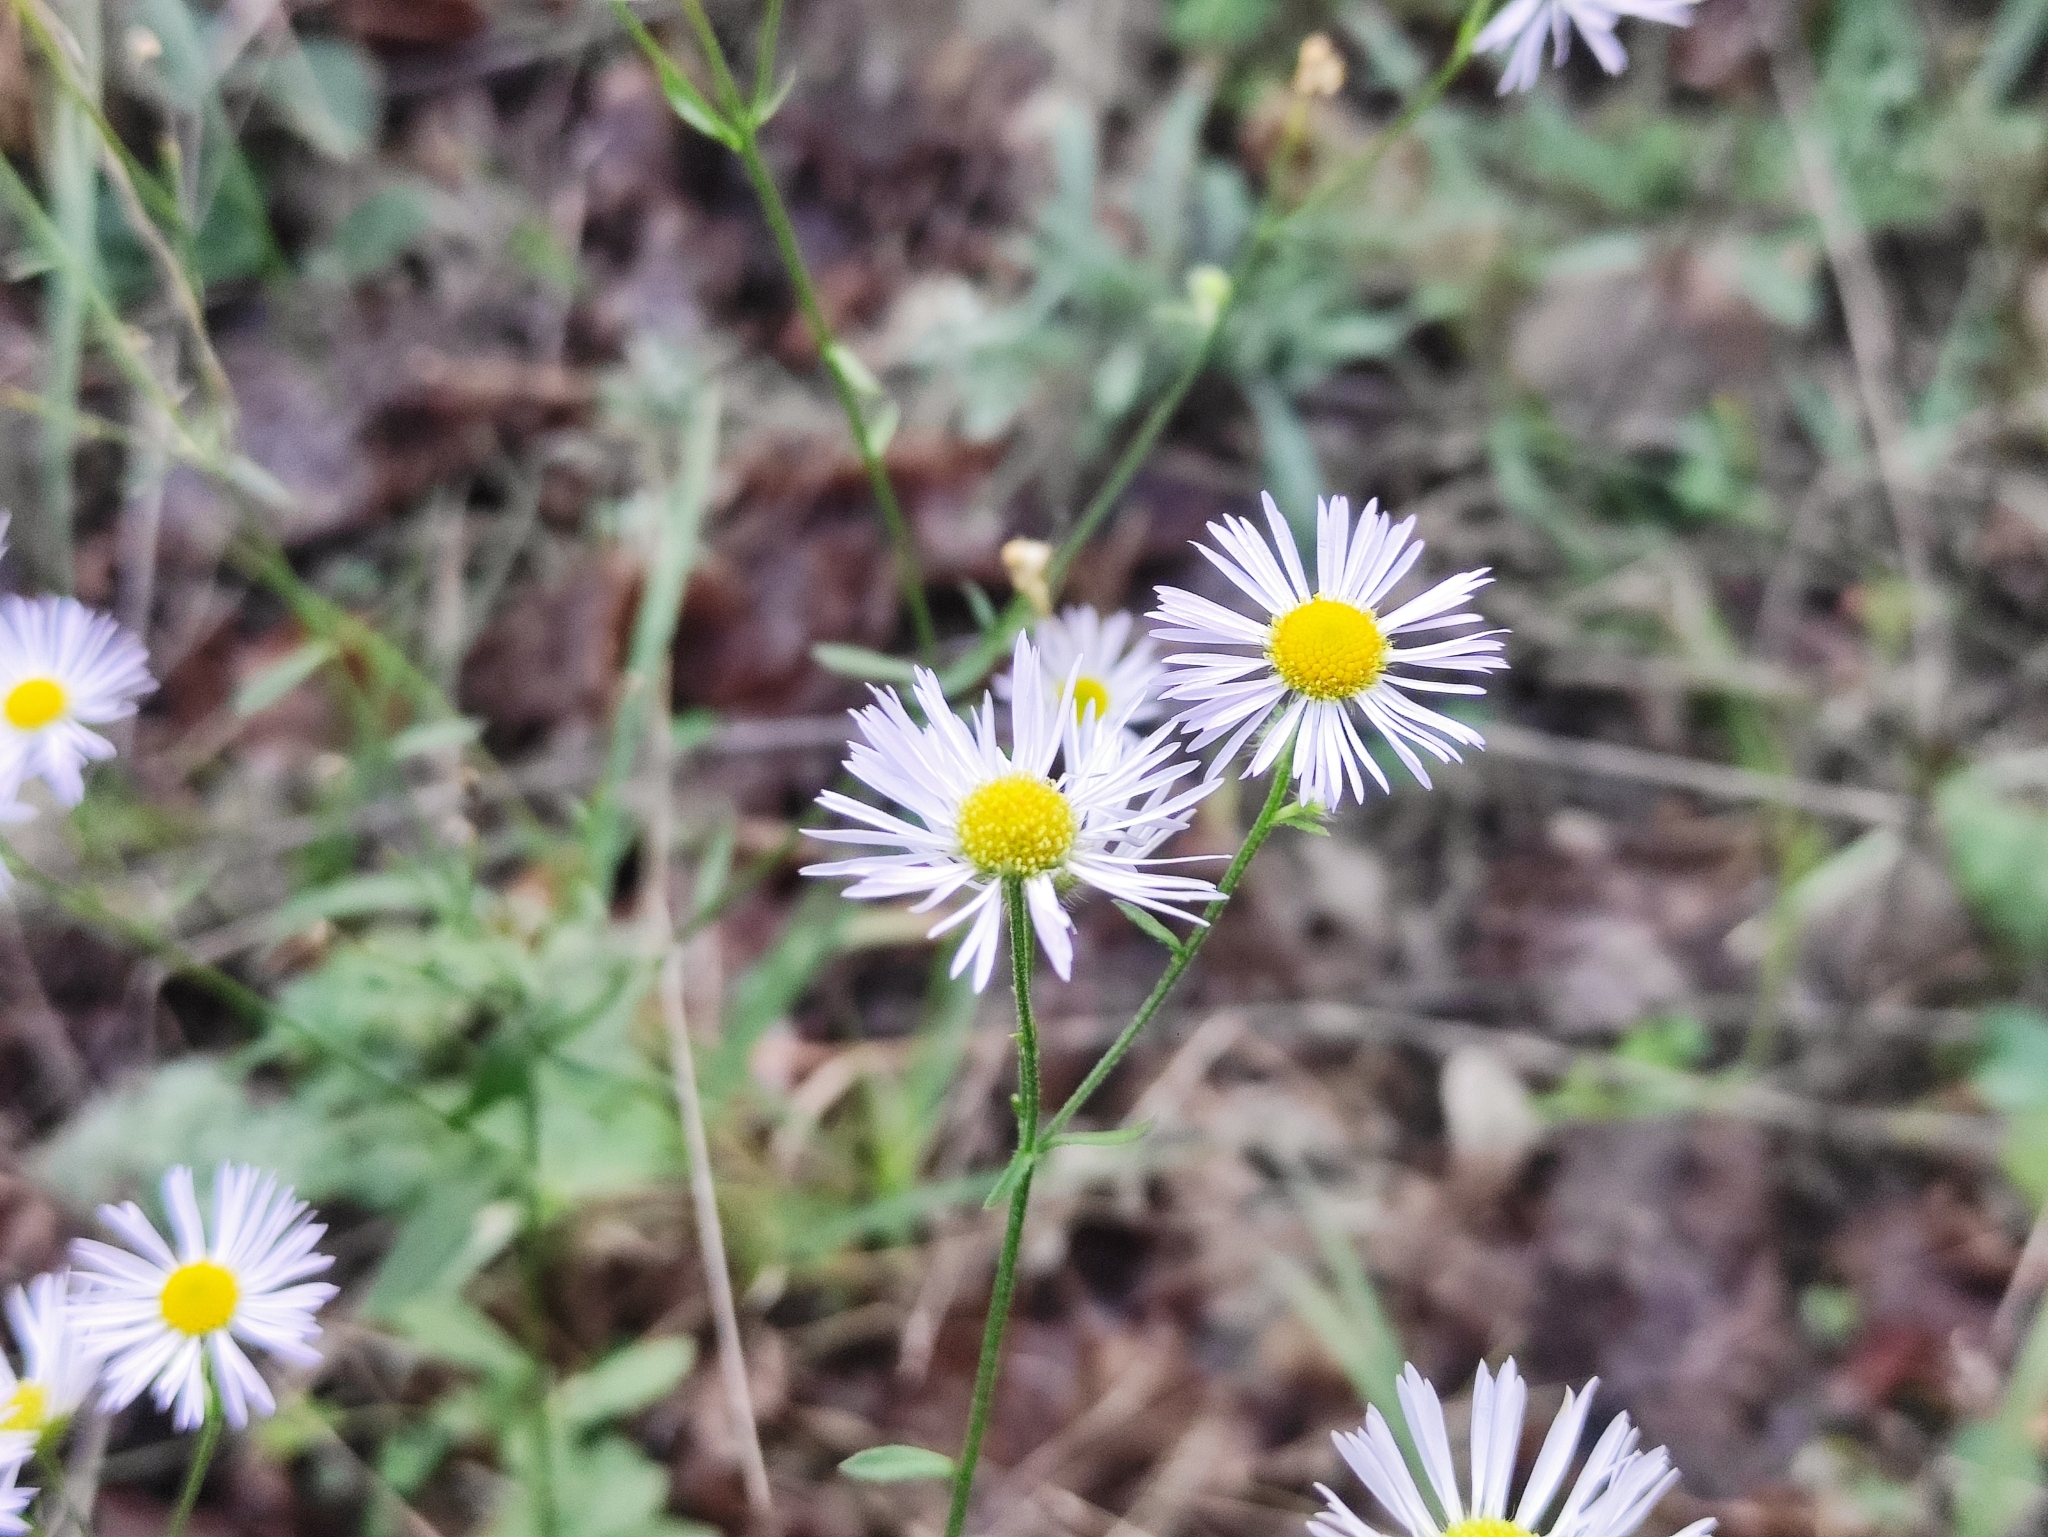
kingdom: Plantae
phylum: Tracheophyta
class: Magnoliopsida
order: Asterales
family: Asteraceae
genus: Erigeron
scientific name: Erigeron annuus
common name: Tall fleabane
